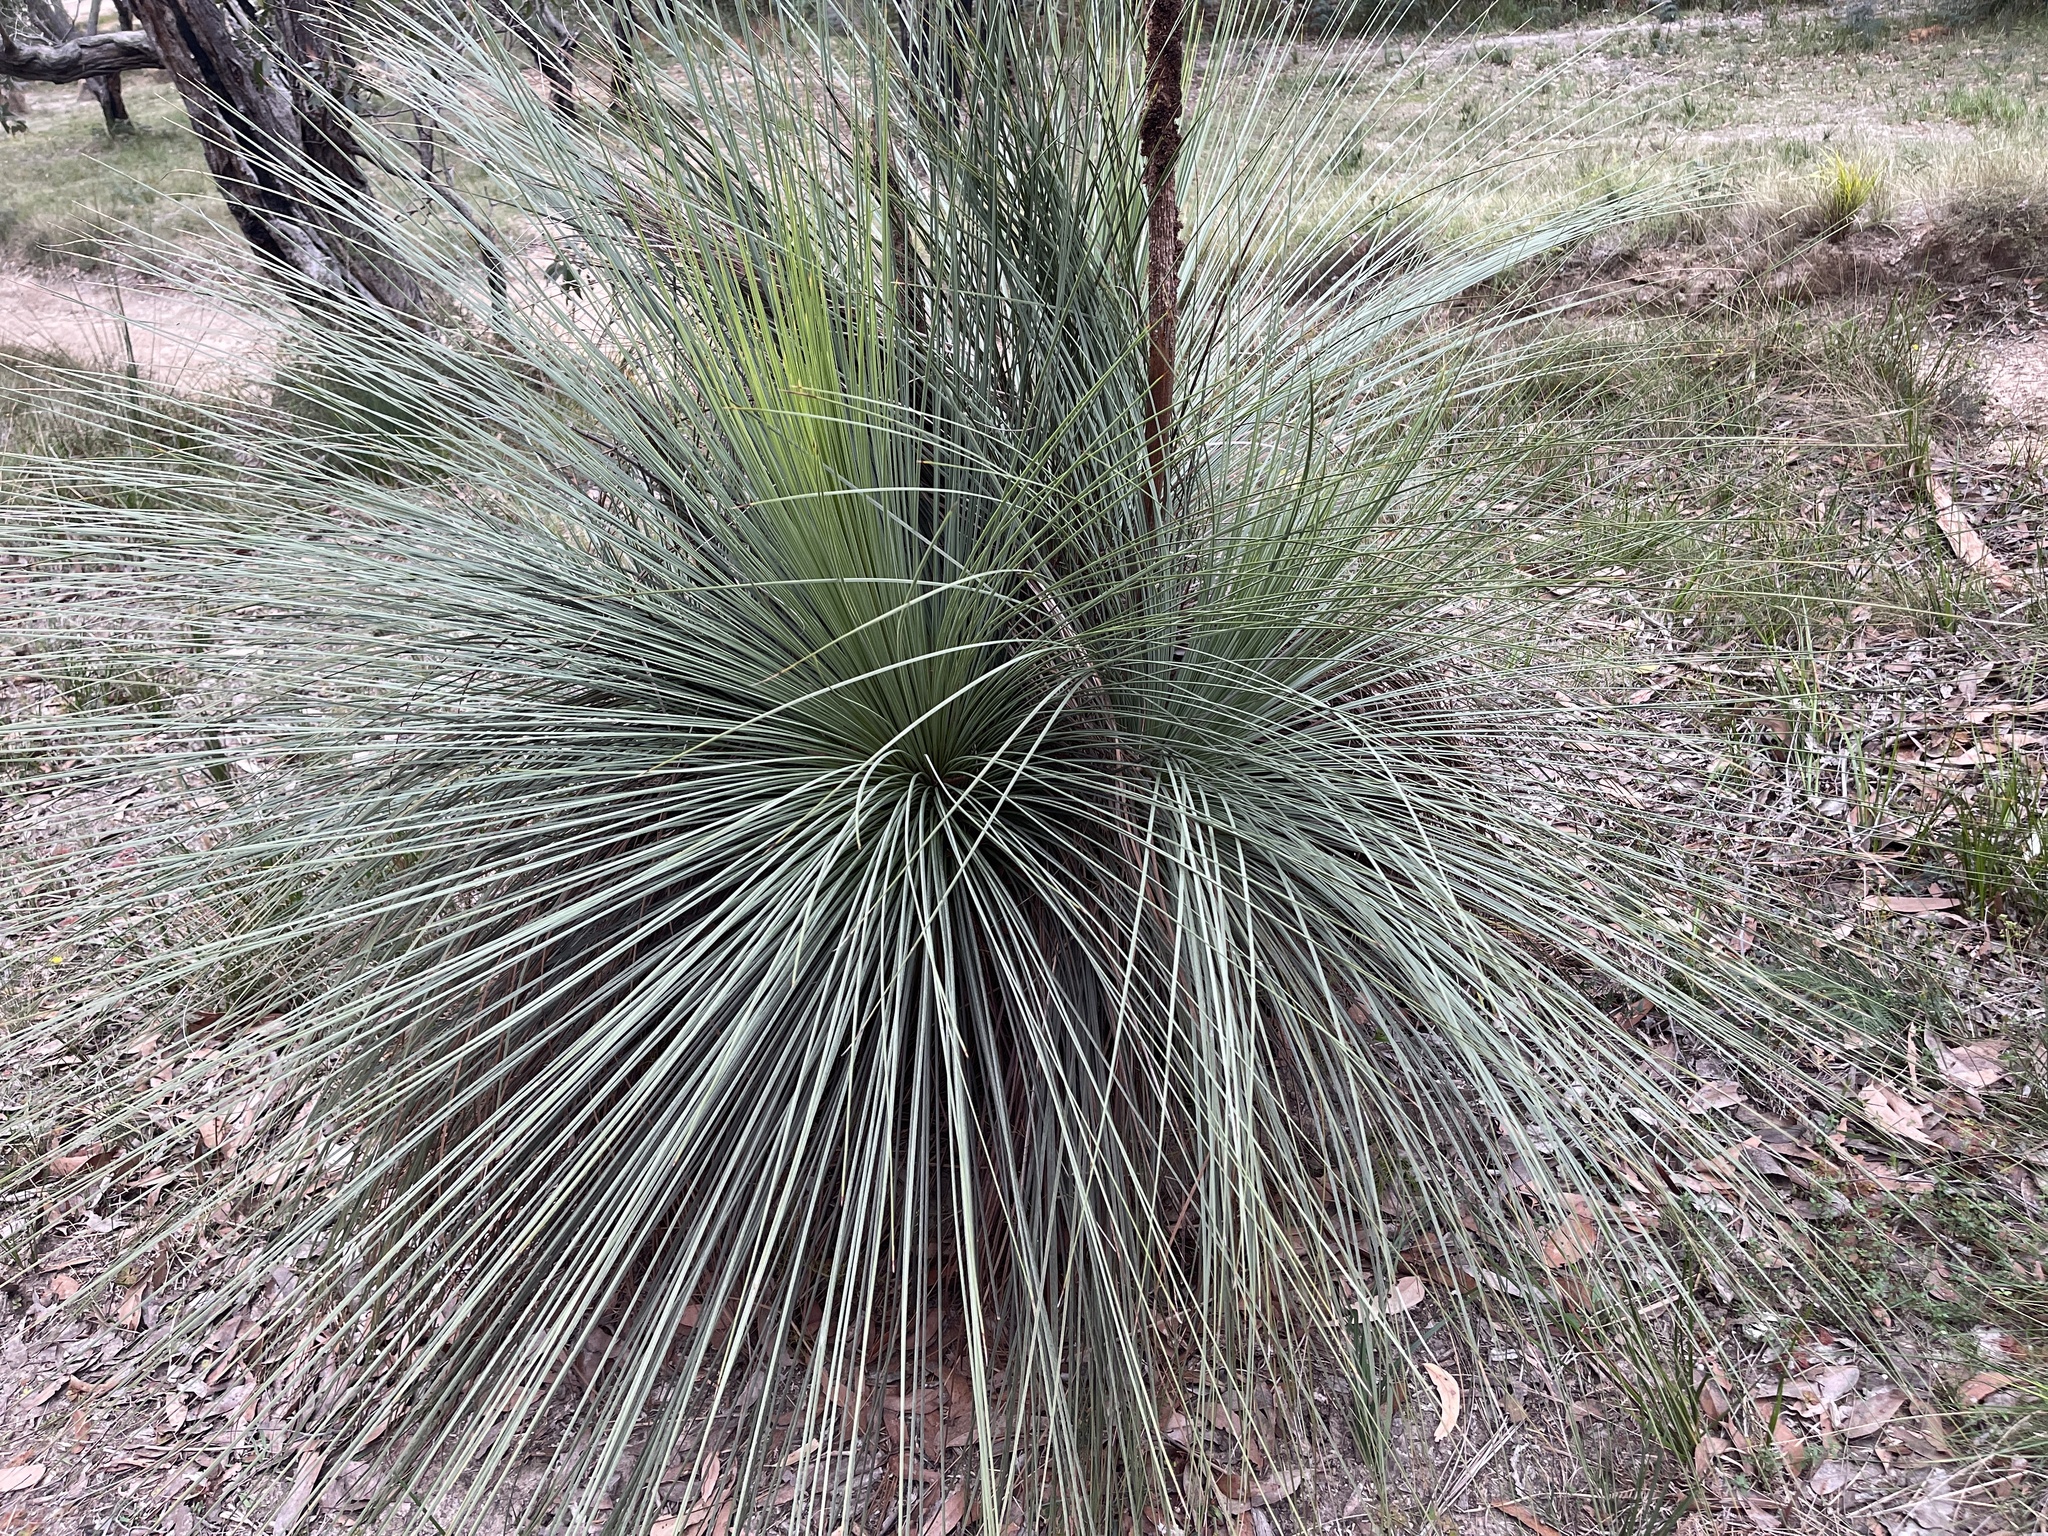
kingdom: Plantae
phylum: Tracheophyta
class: Liliopsida
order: Asparagales
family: Asphodelaceae
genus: Xanthorrhoea
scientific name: Xanthorrhoea australis
